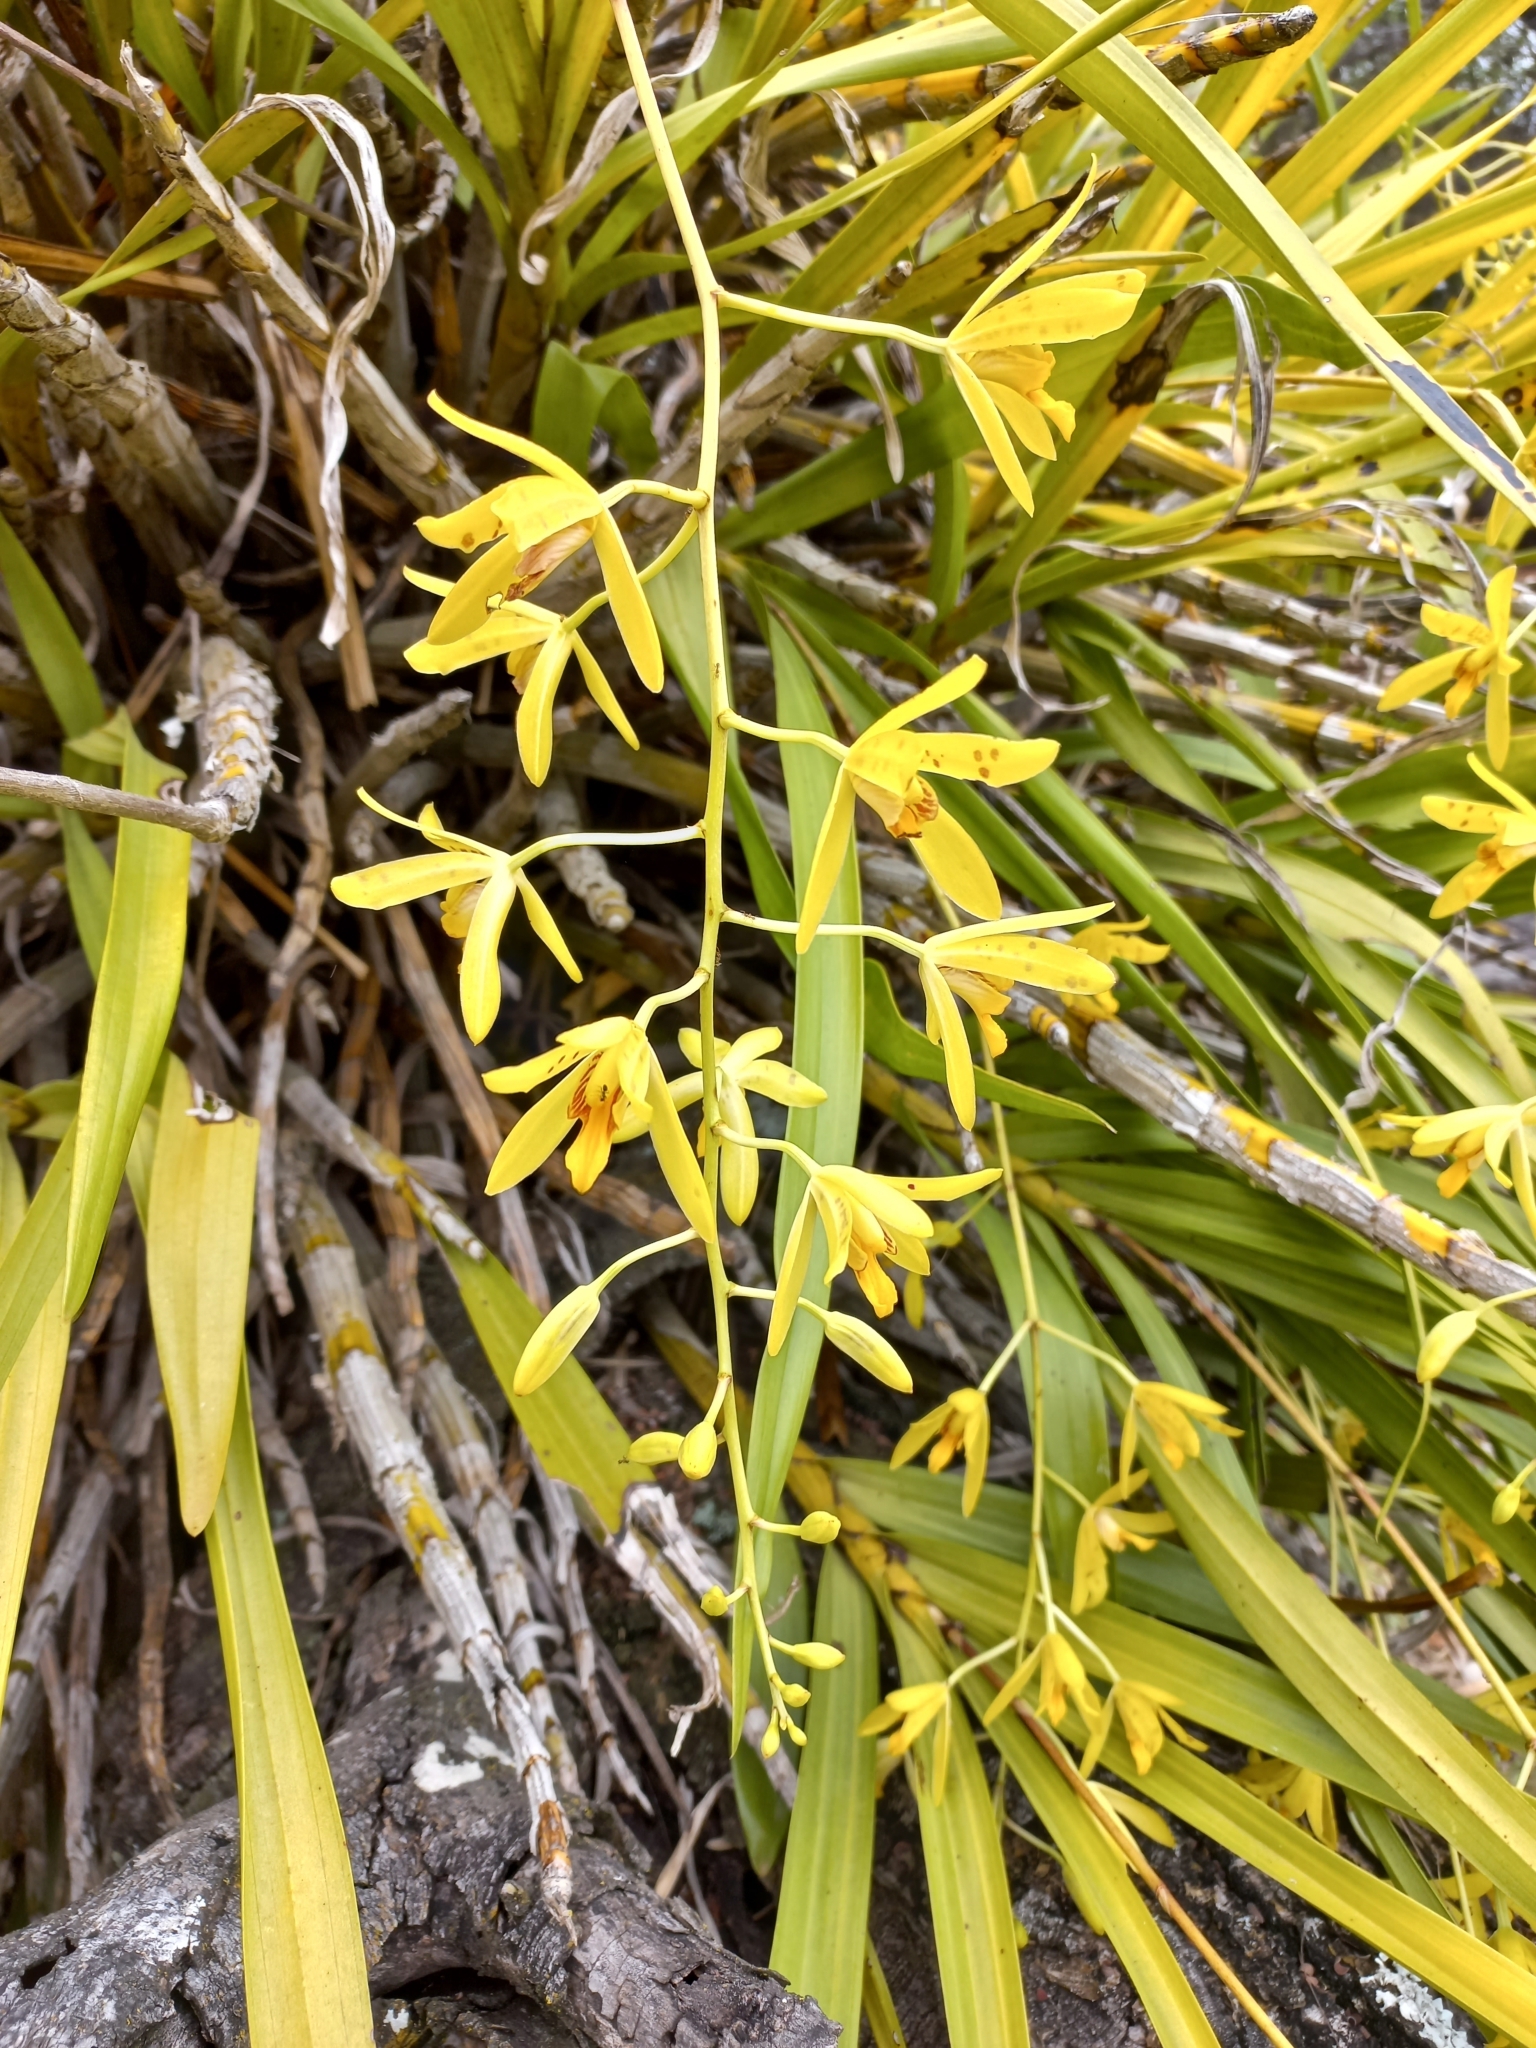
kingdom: Plantae
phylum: Tracheophyta
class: Liliopsida
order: Asparagales
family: Orchidaceae
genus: Ansellia
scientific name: Ansellia africana
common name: African ansellia
